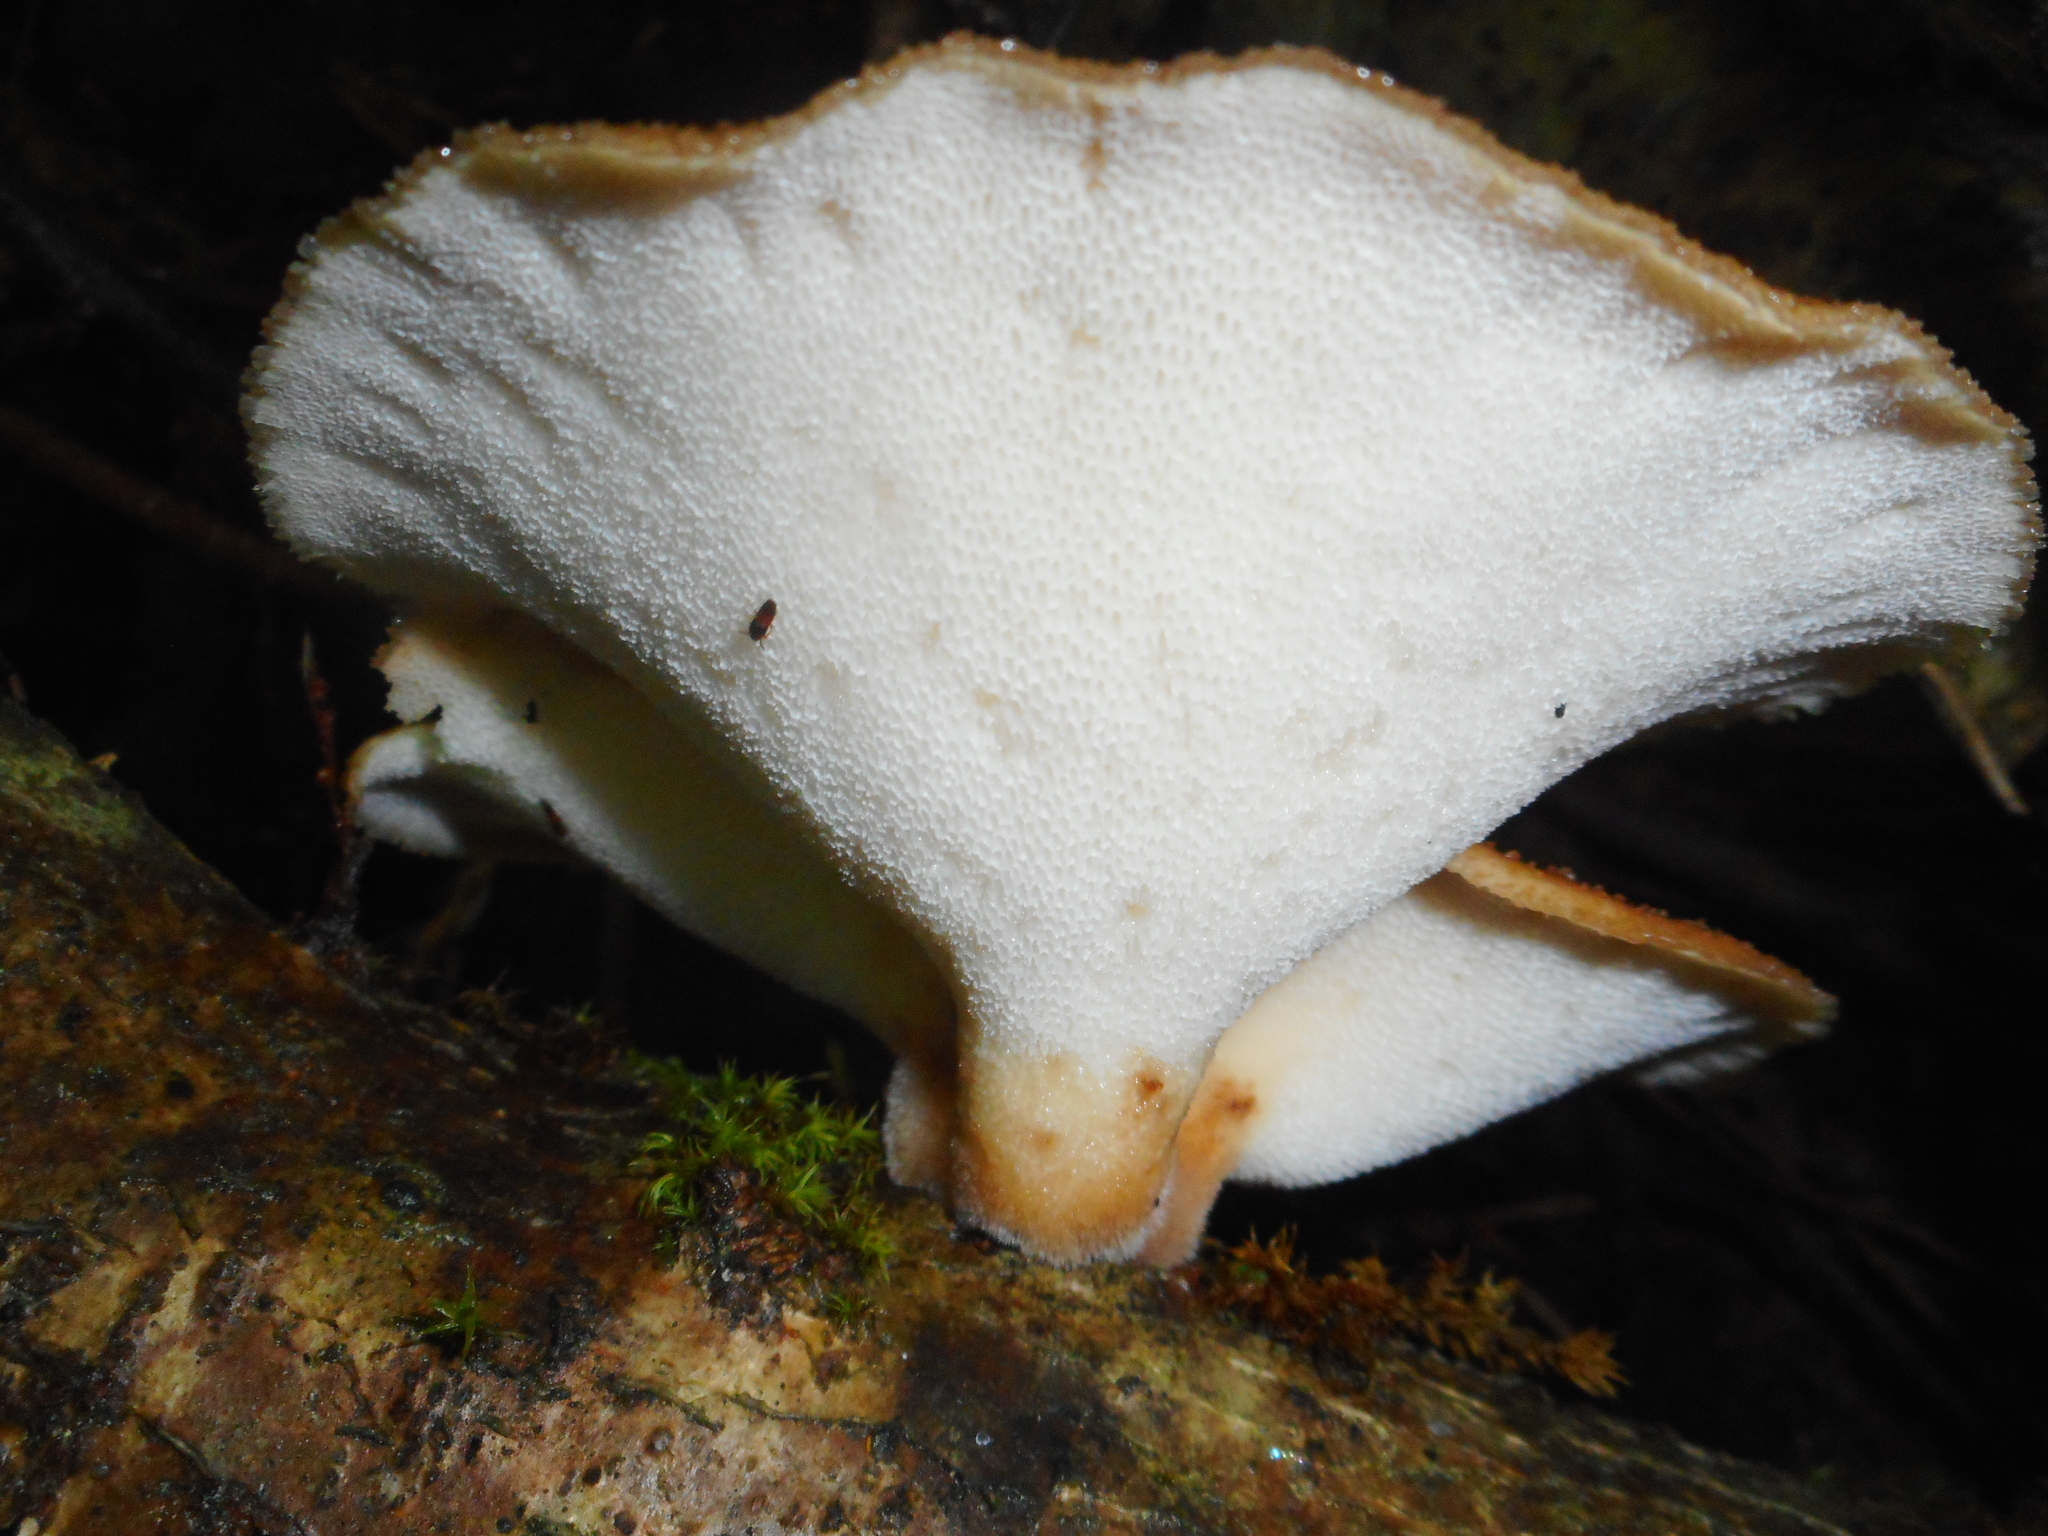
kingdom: Fungi
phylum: Basidiomycota
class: Agaricomycetes
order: Polyporales
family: Polyporaceae
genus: Polyporus
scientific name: Polyporus tuberaster
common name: Tuberous polypore
